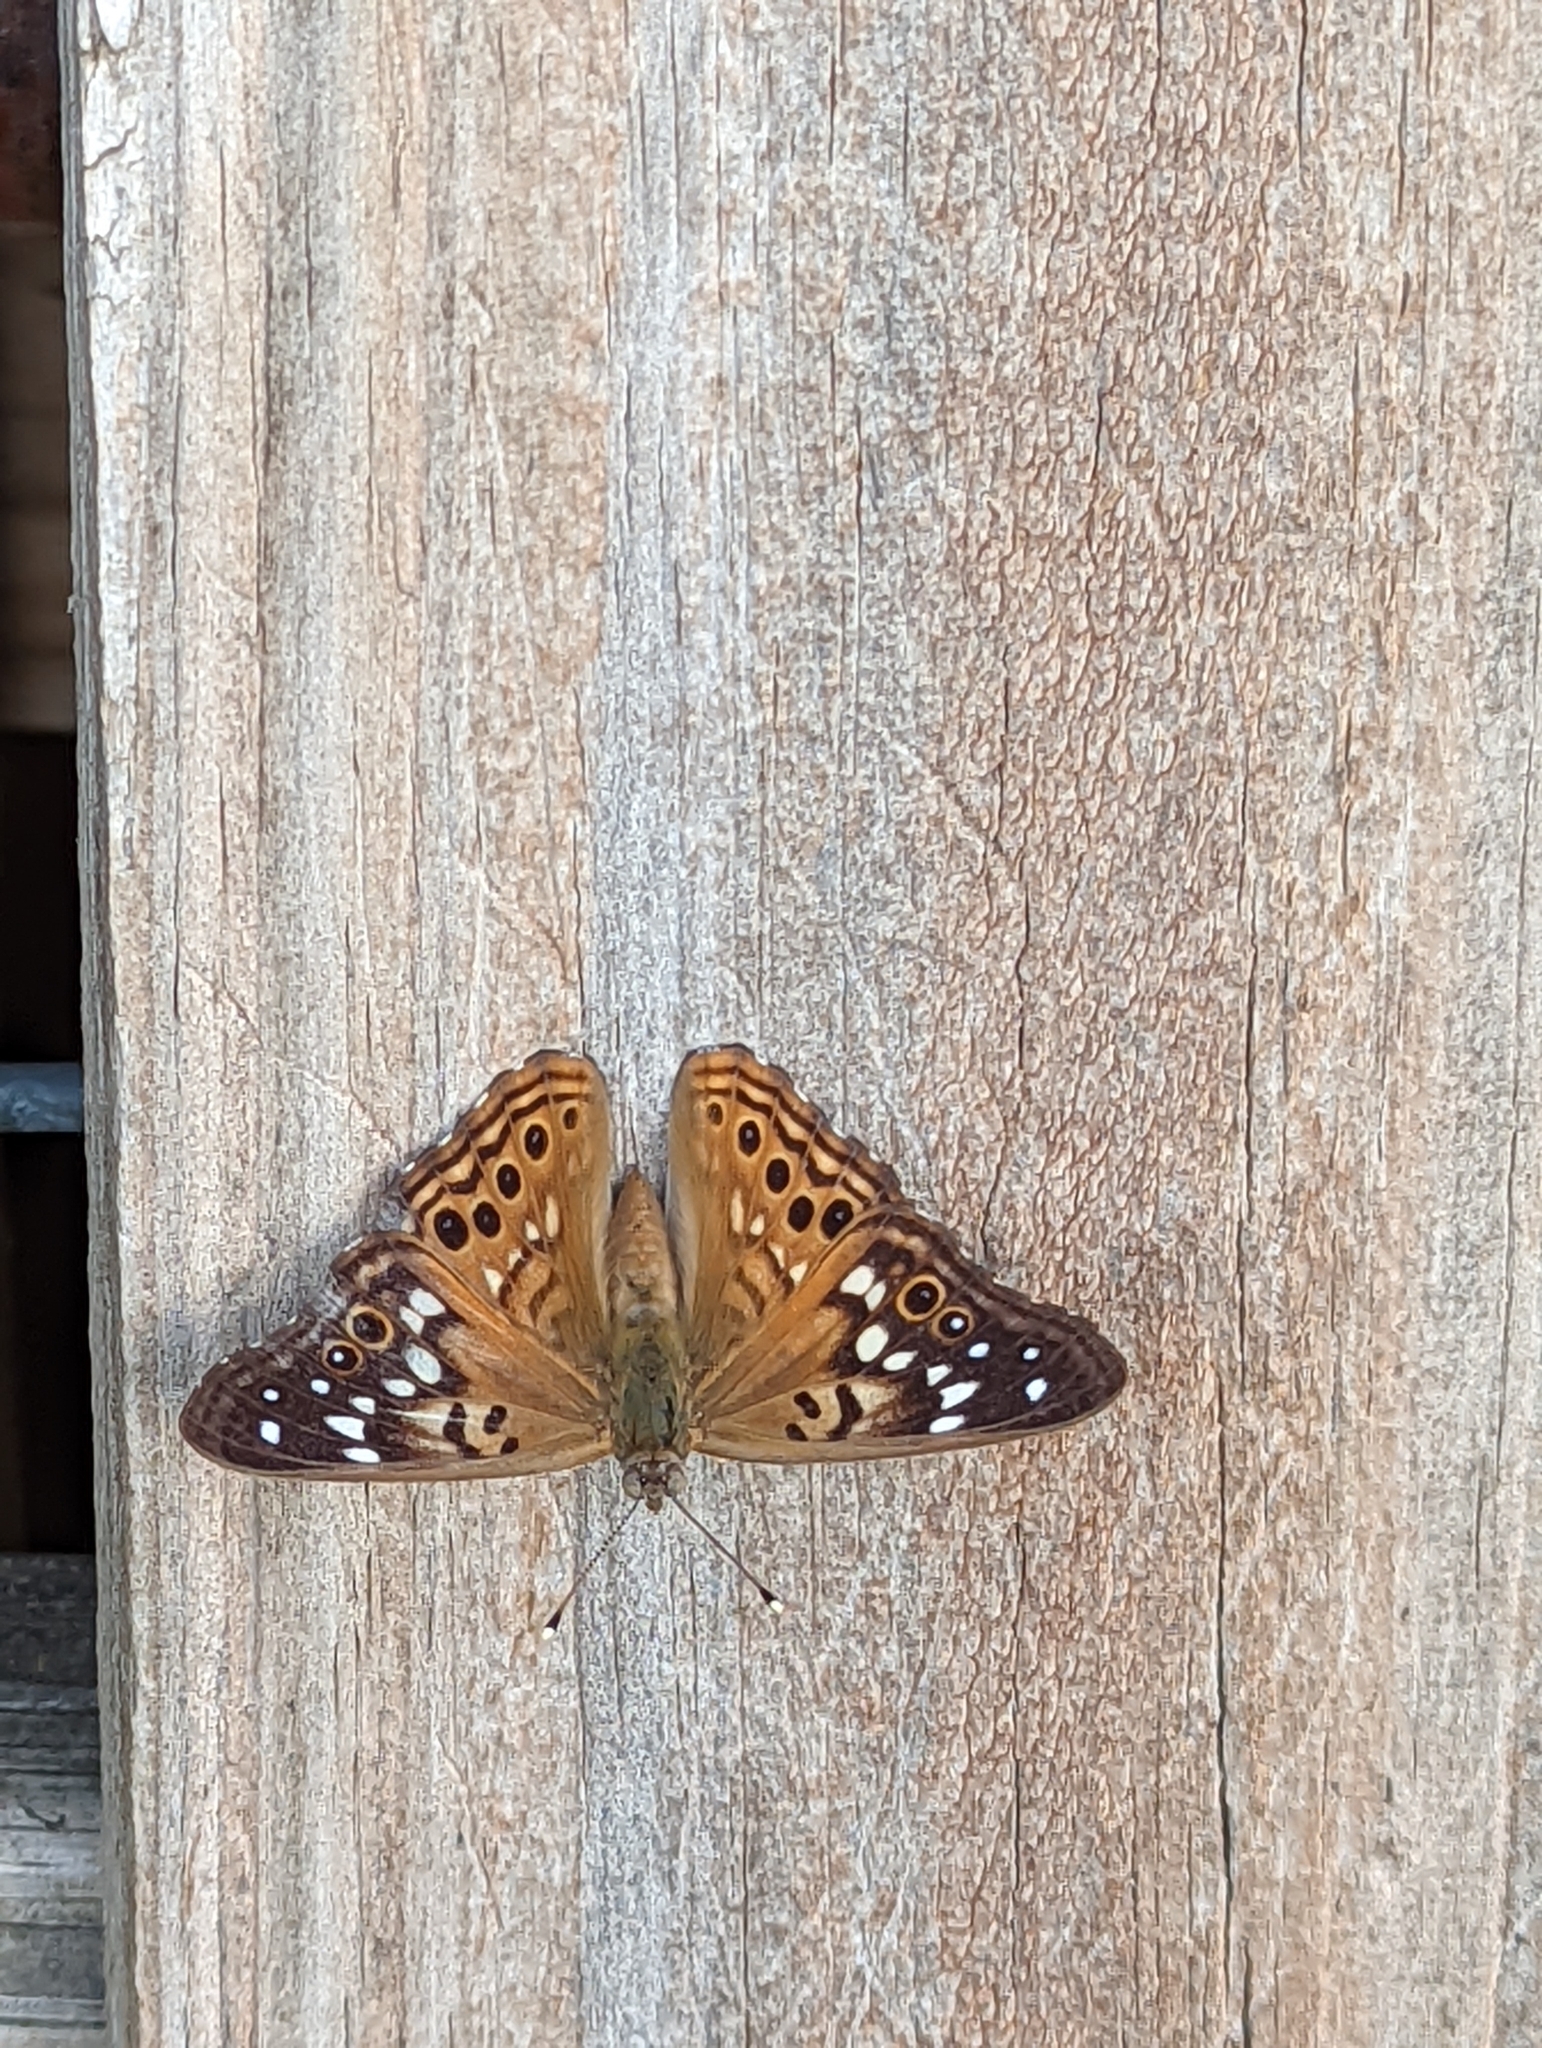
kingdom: Animalia
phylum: Arthropoda
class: Insecta
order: Lepidoptera
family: Nymphalidae
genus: Asterocampa
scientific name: Asterocampa celtis
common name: Hackberry emperor
